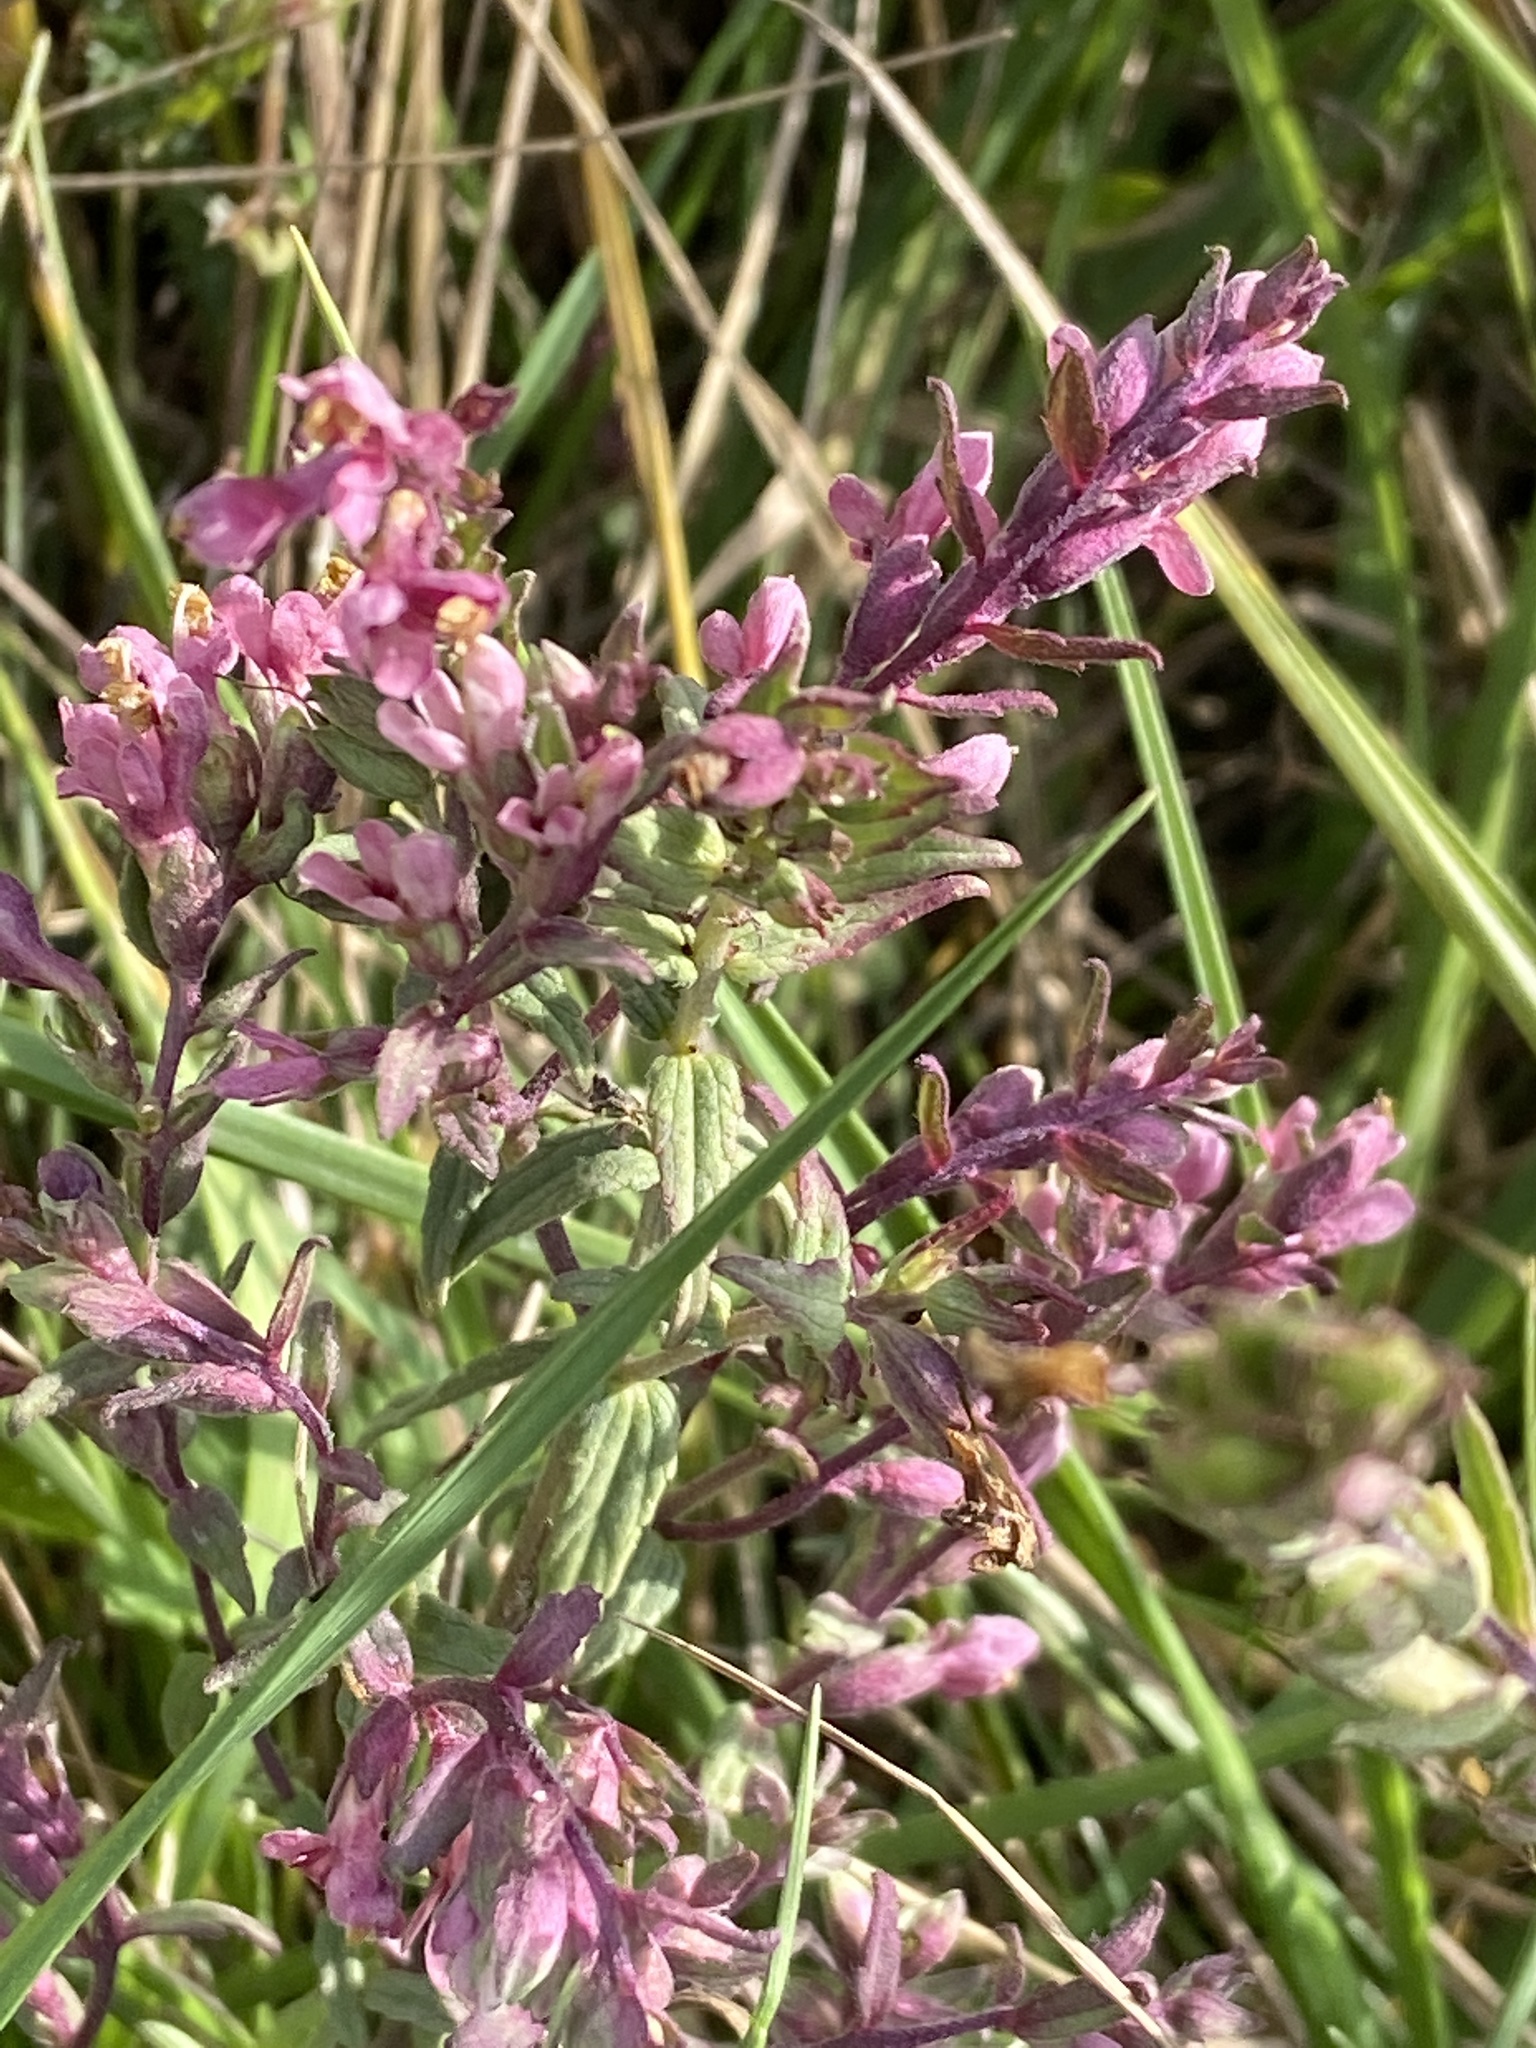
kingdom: Plantae
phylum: Tracheophyta
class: Magnoliopsida
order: Lamiales
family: Orobanchaceae
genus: Odontites
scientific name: Odontites vulgaris
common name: Broomrape
